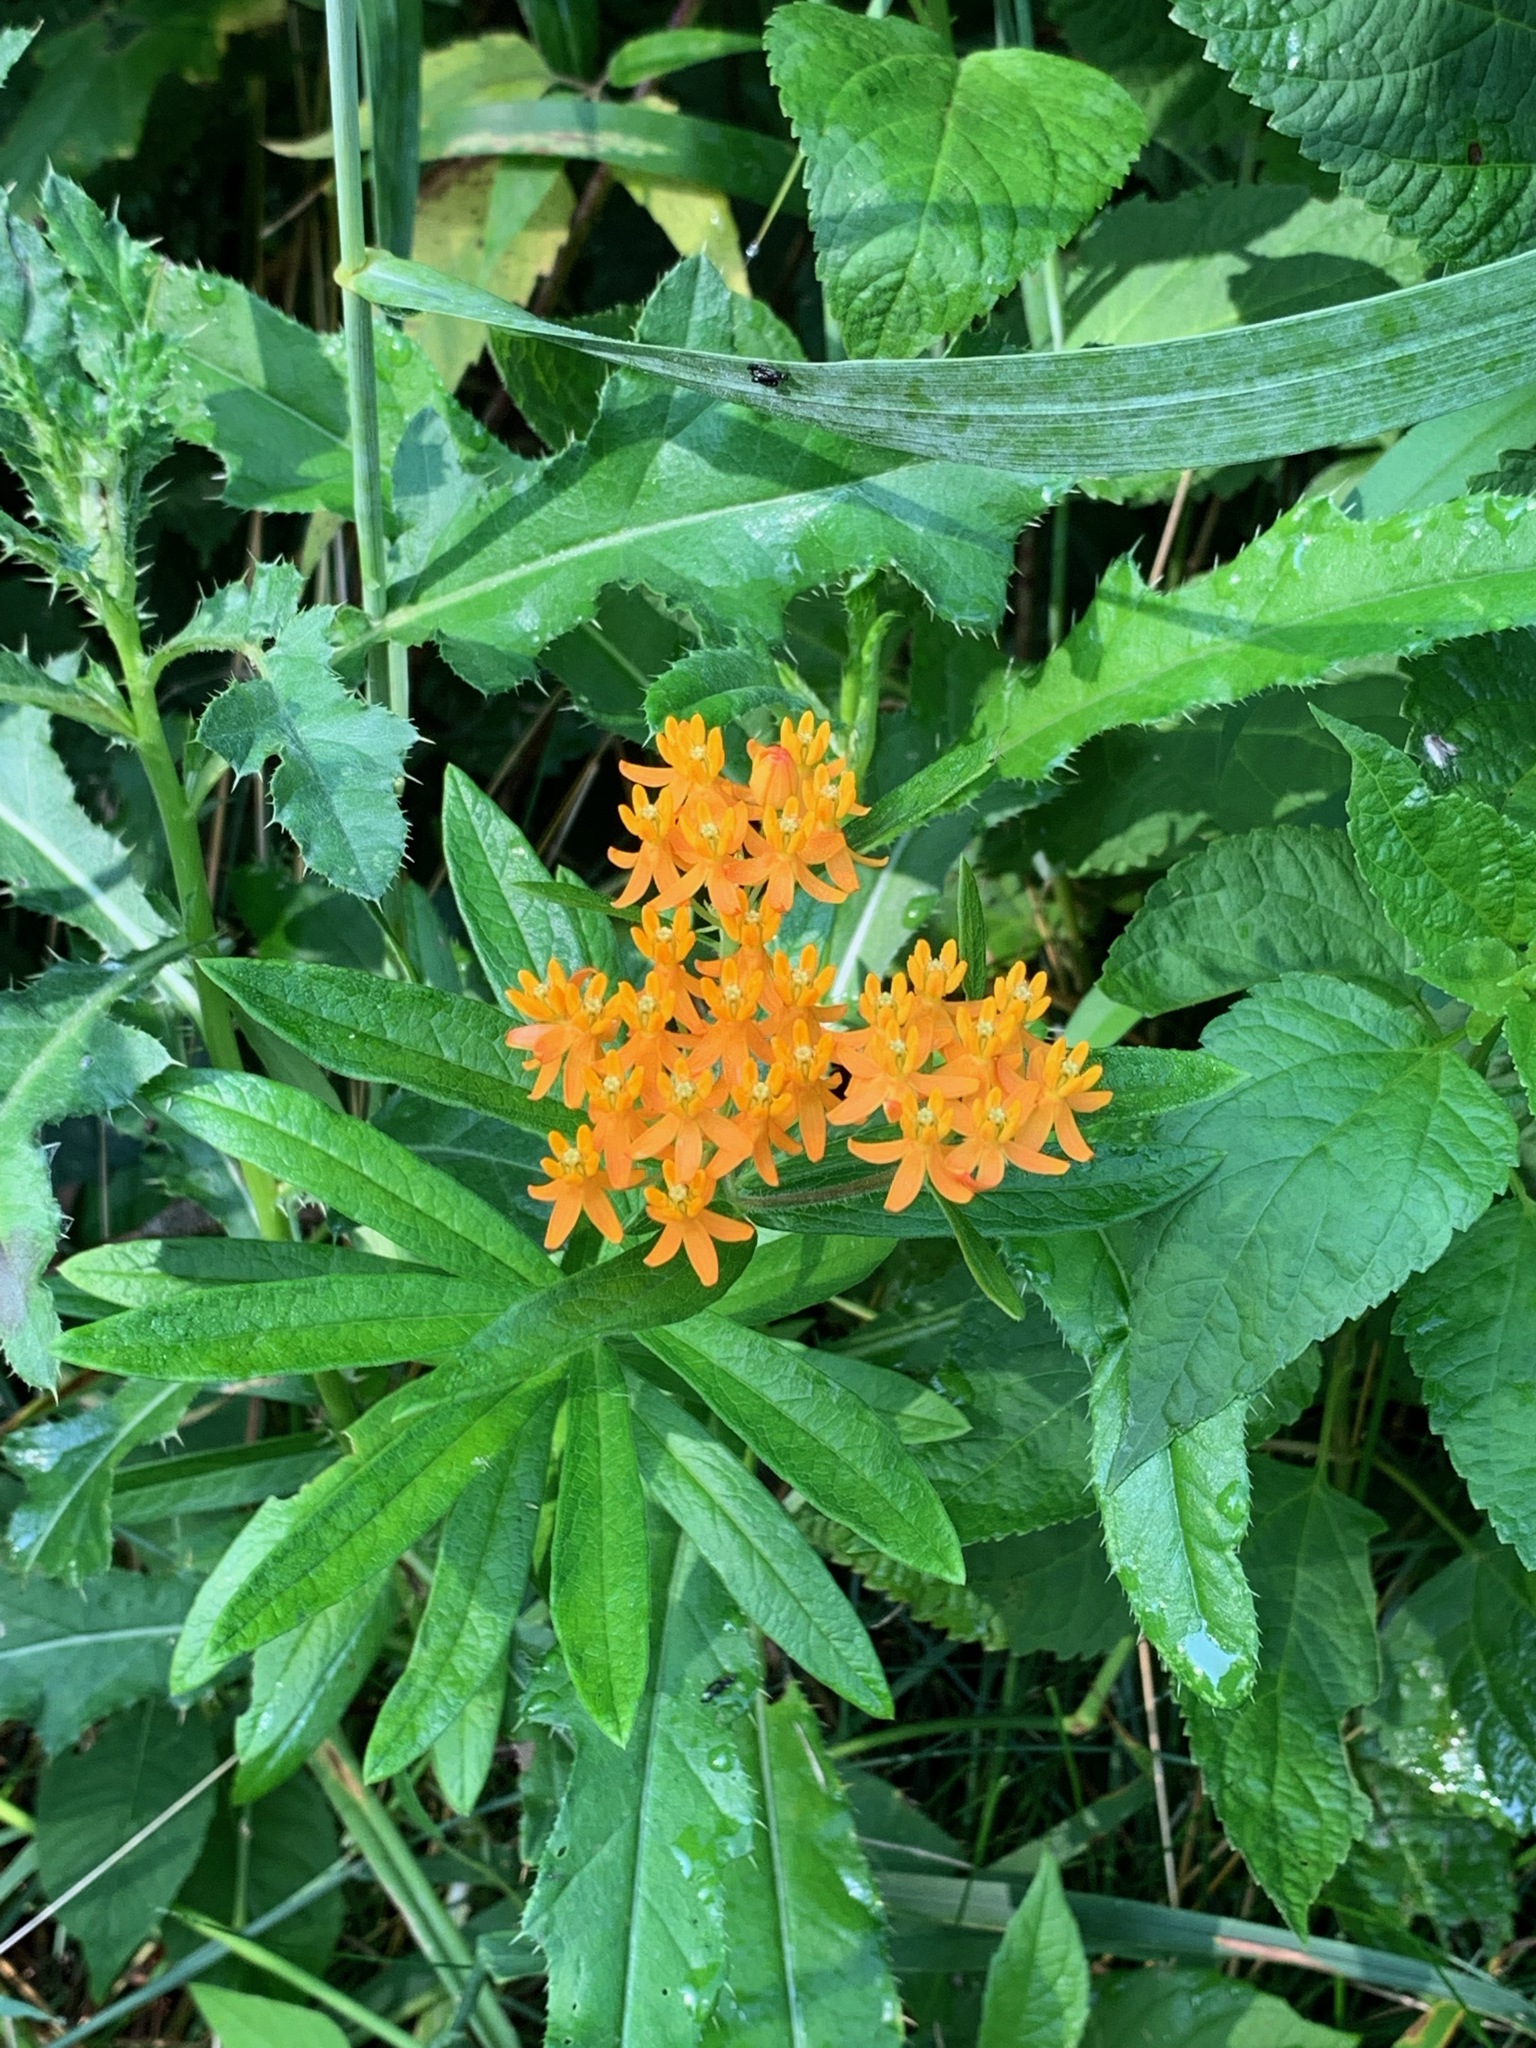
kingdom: Plantae
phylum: Tracheophyta
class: Magnoliopsida
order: Gentianales
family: Apocynaceae
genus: Asclepias
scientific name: Asclepias tuberosa
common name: Butterfly milkweed
